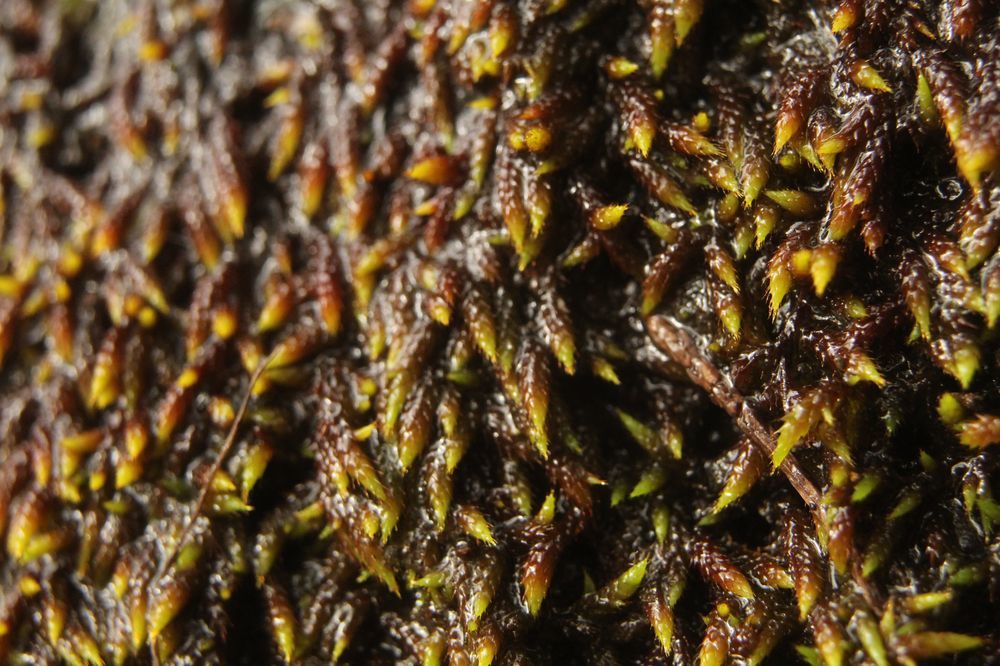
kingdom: Plantae
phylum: Bryophyta
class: Bryopsida
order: Hedwigiales
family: Hedwigiaceae
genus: Rhacocarpus
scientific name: Rhacocarpus purpurascens
